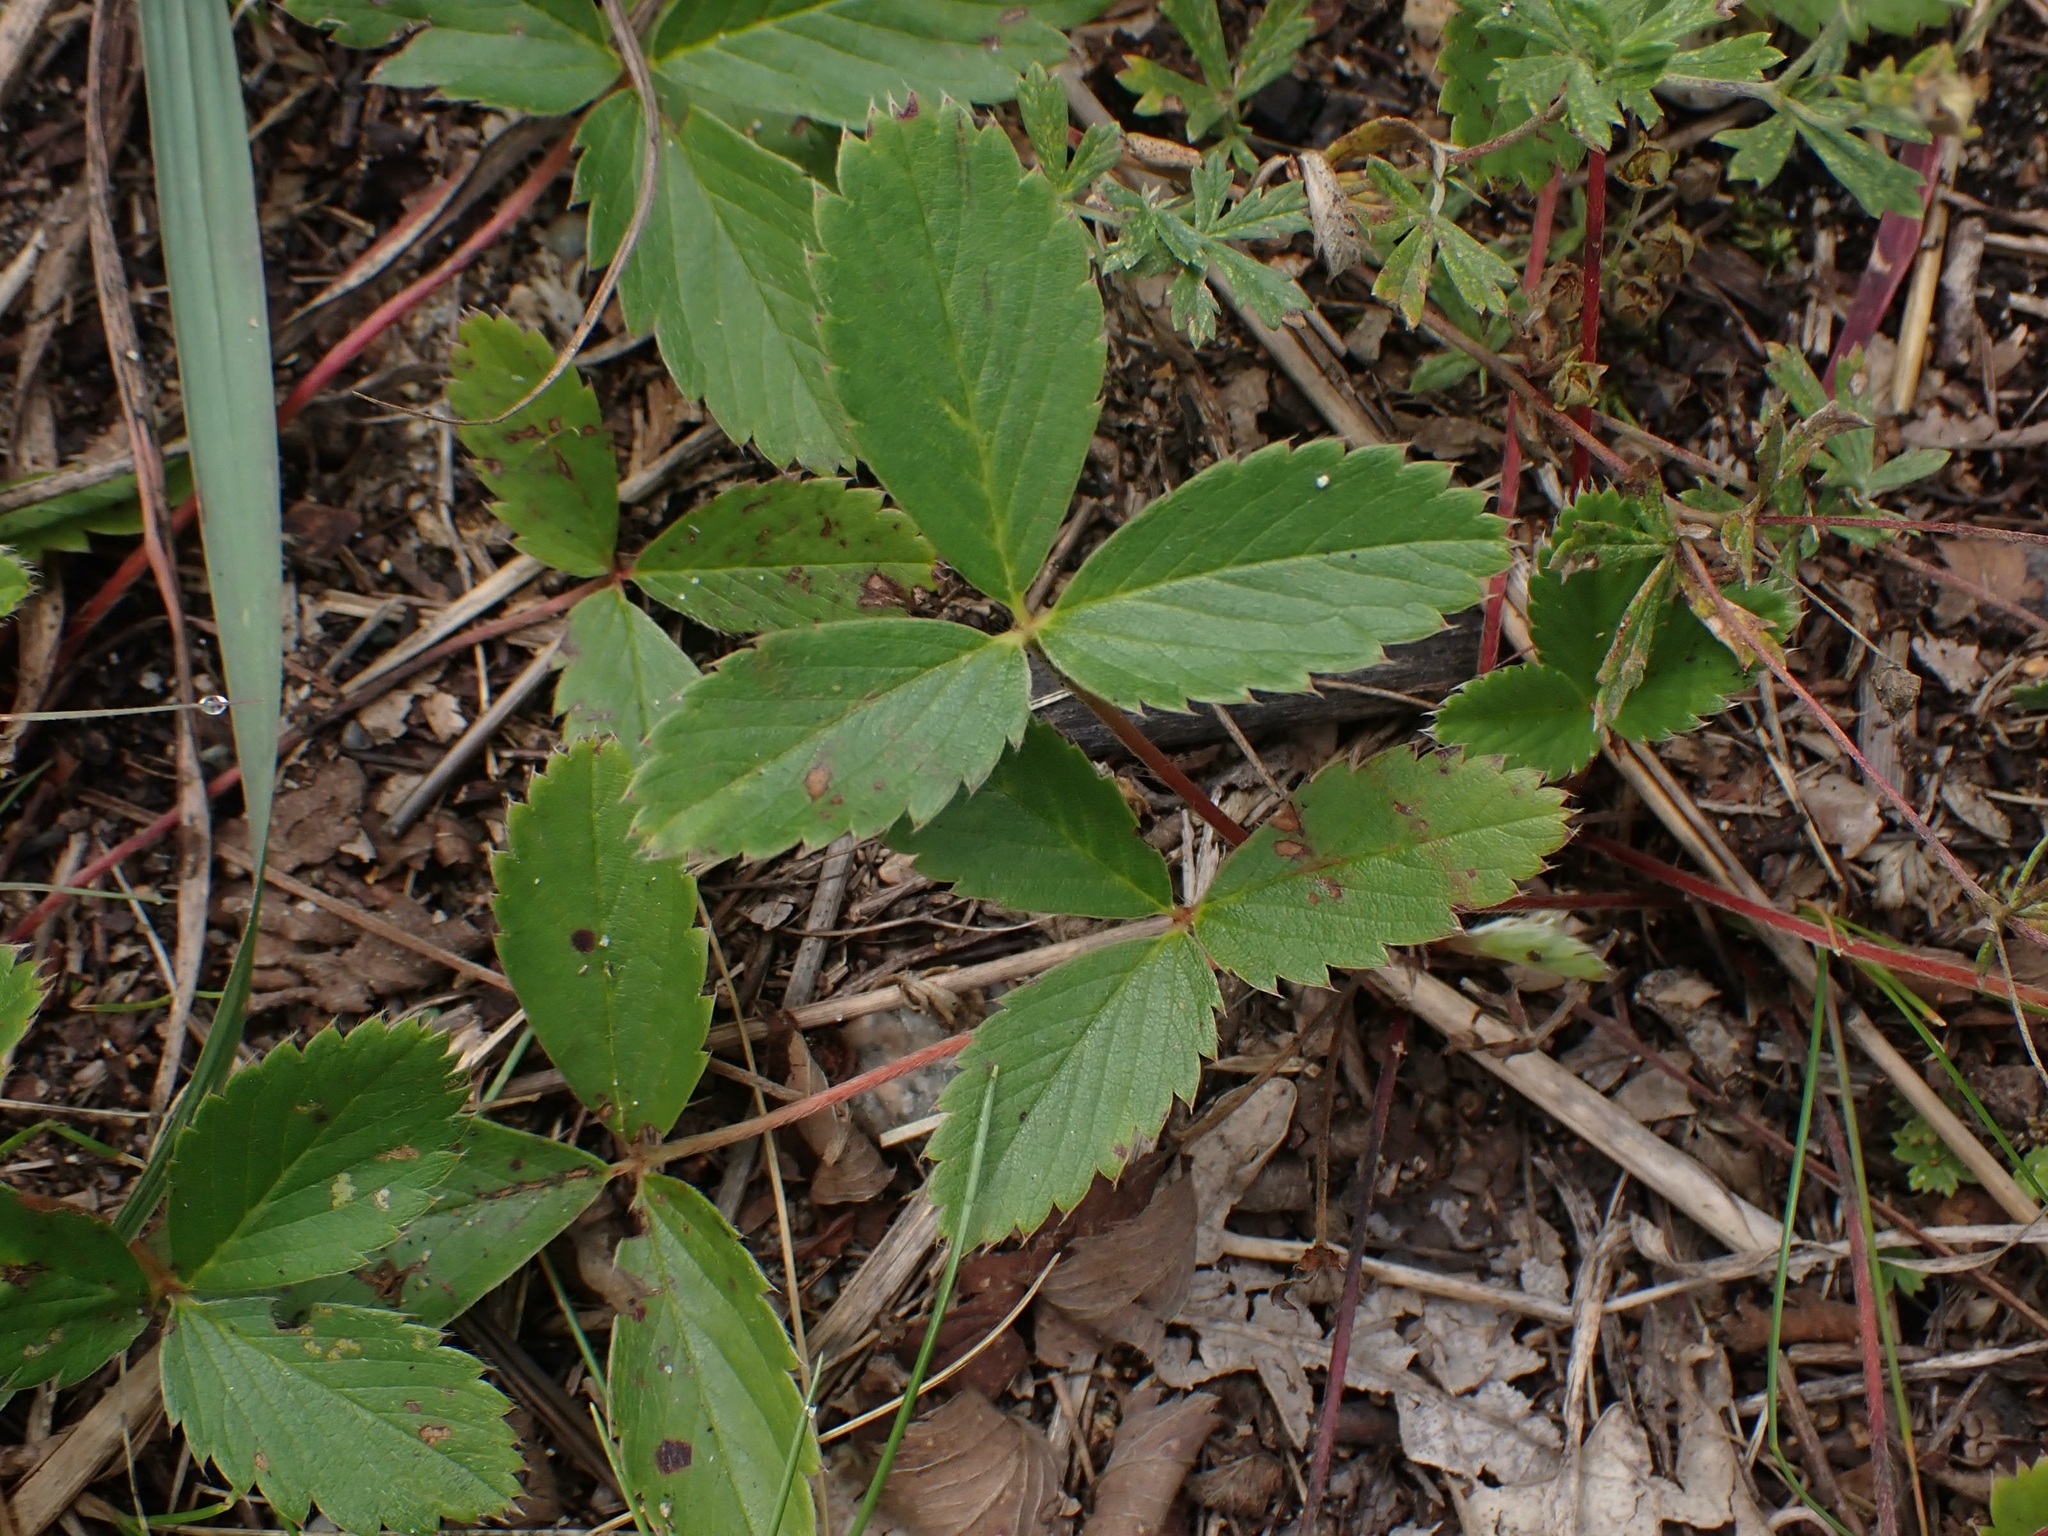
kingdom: Plantae
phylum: Tracheophyta
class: Magnoliopsida
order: Rosales
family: Rosaceae
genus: Fragaria
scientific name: Fragaria virginiana
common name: Thickleaved wild strawberry
